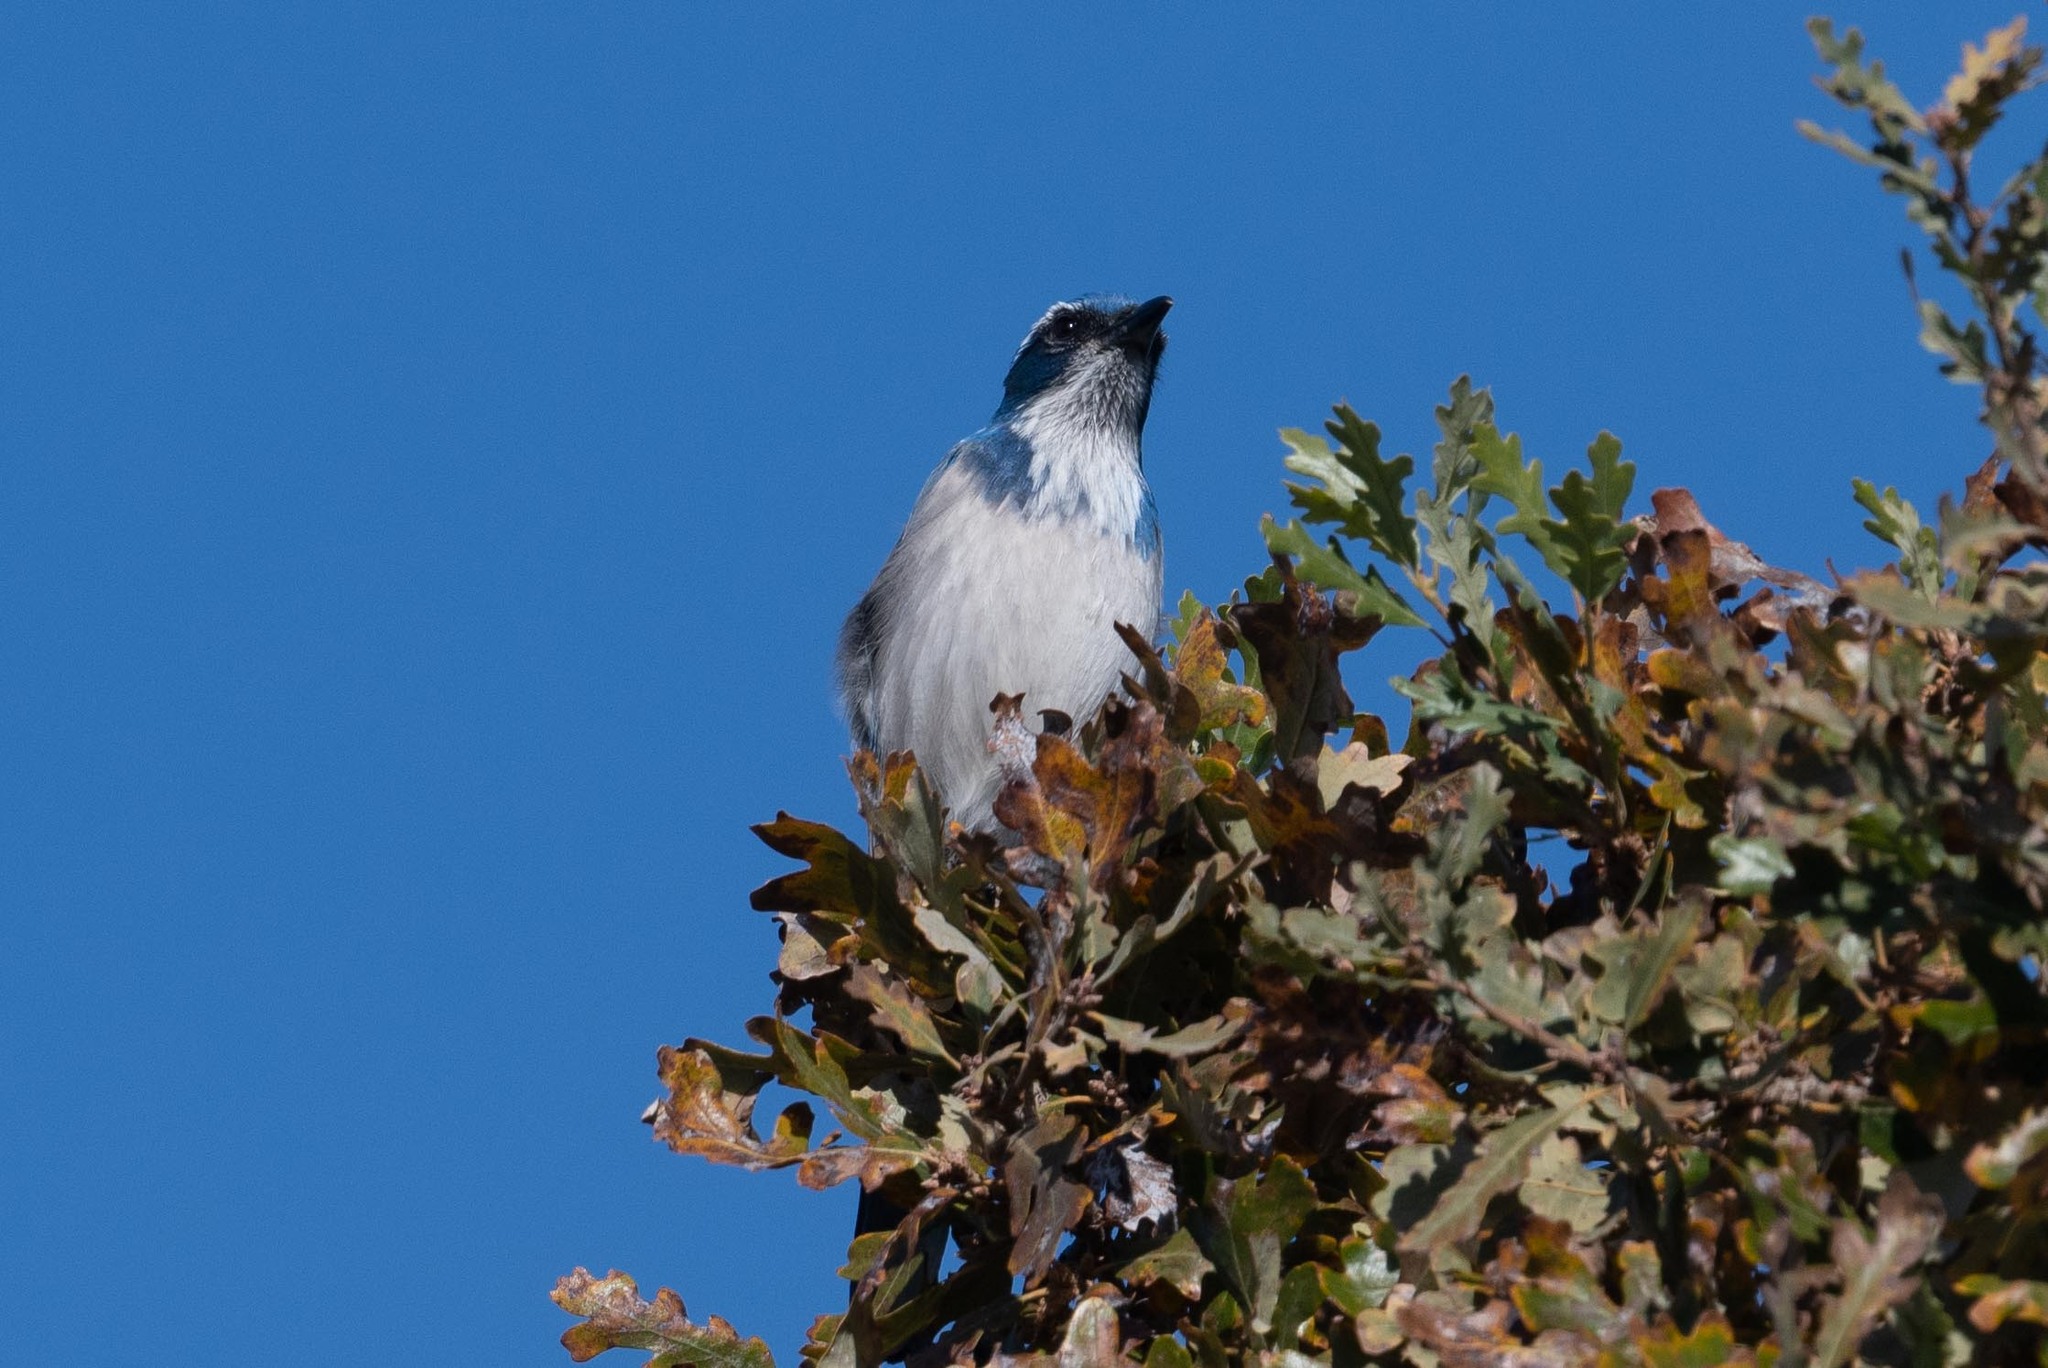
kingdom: Animalia
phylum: Chordata
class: Aves
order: Passeriformes
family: Corvidae
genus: Aphelocoma
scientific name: Aphelocoma californica
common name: California scrub-jay
